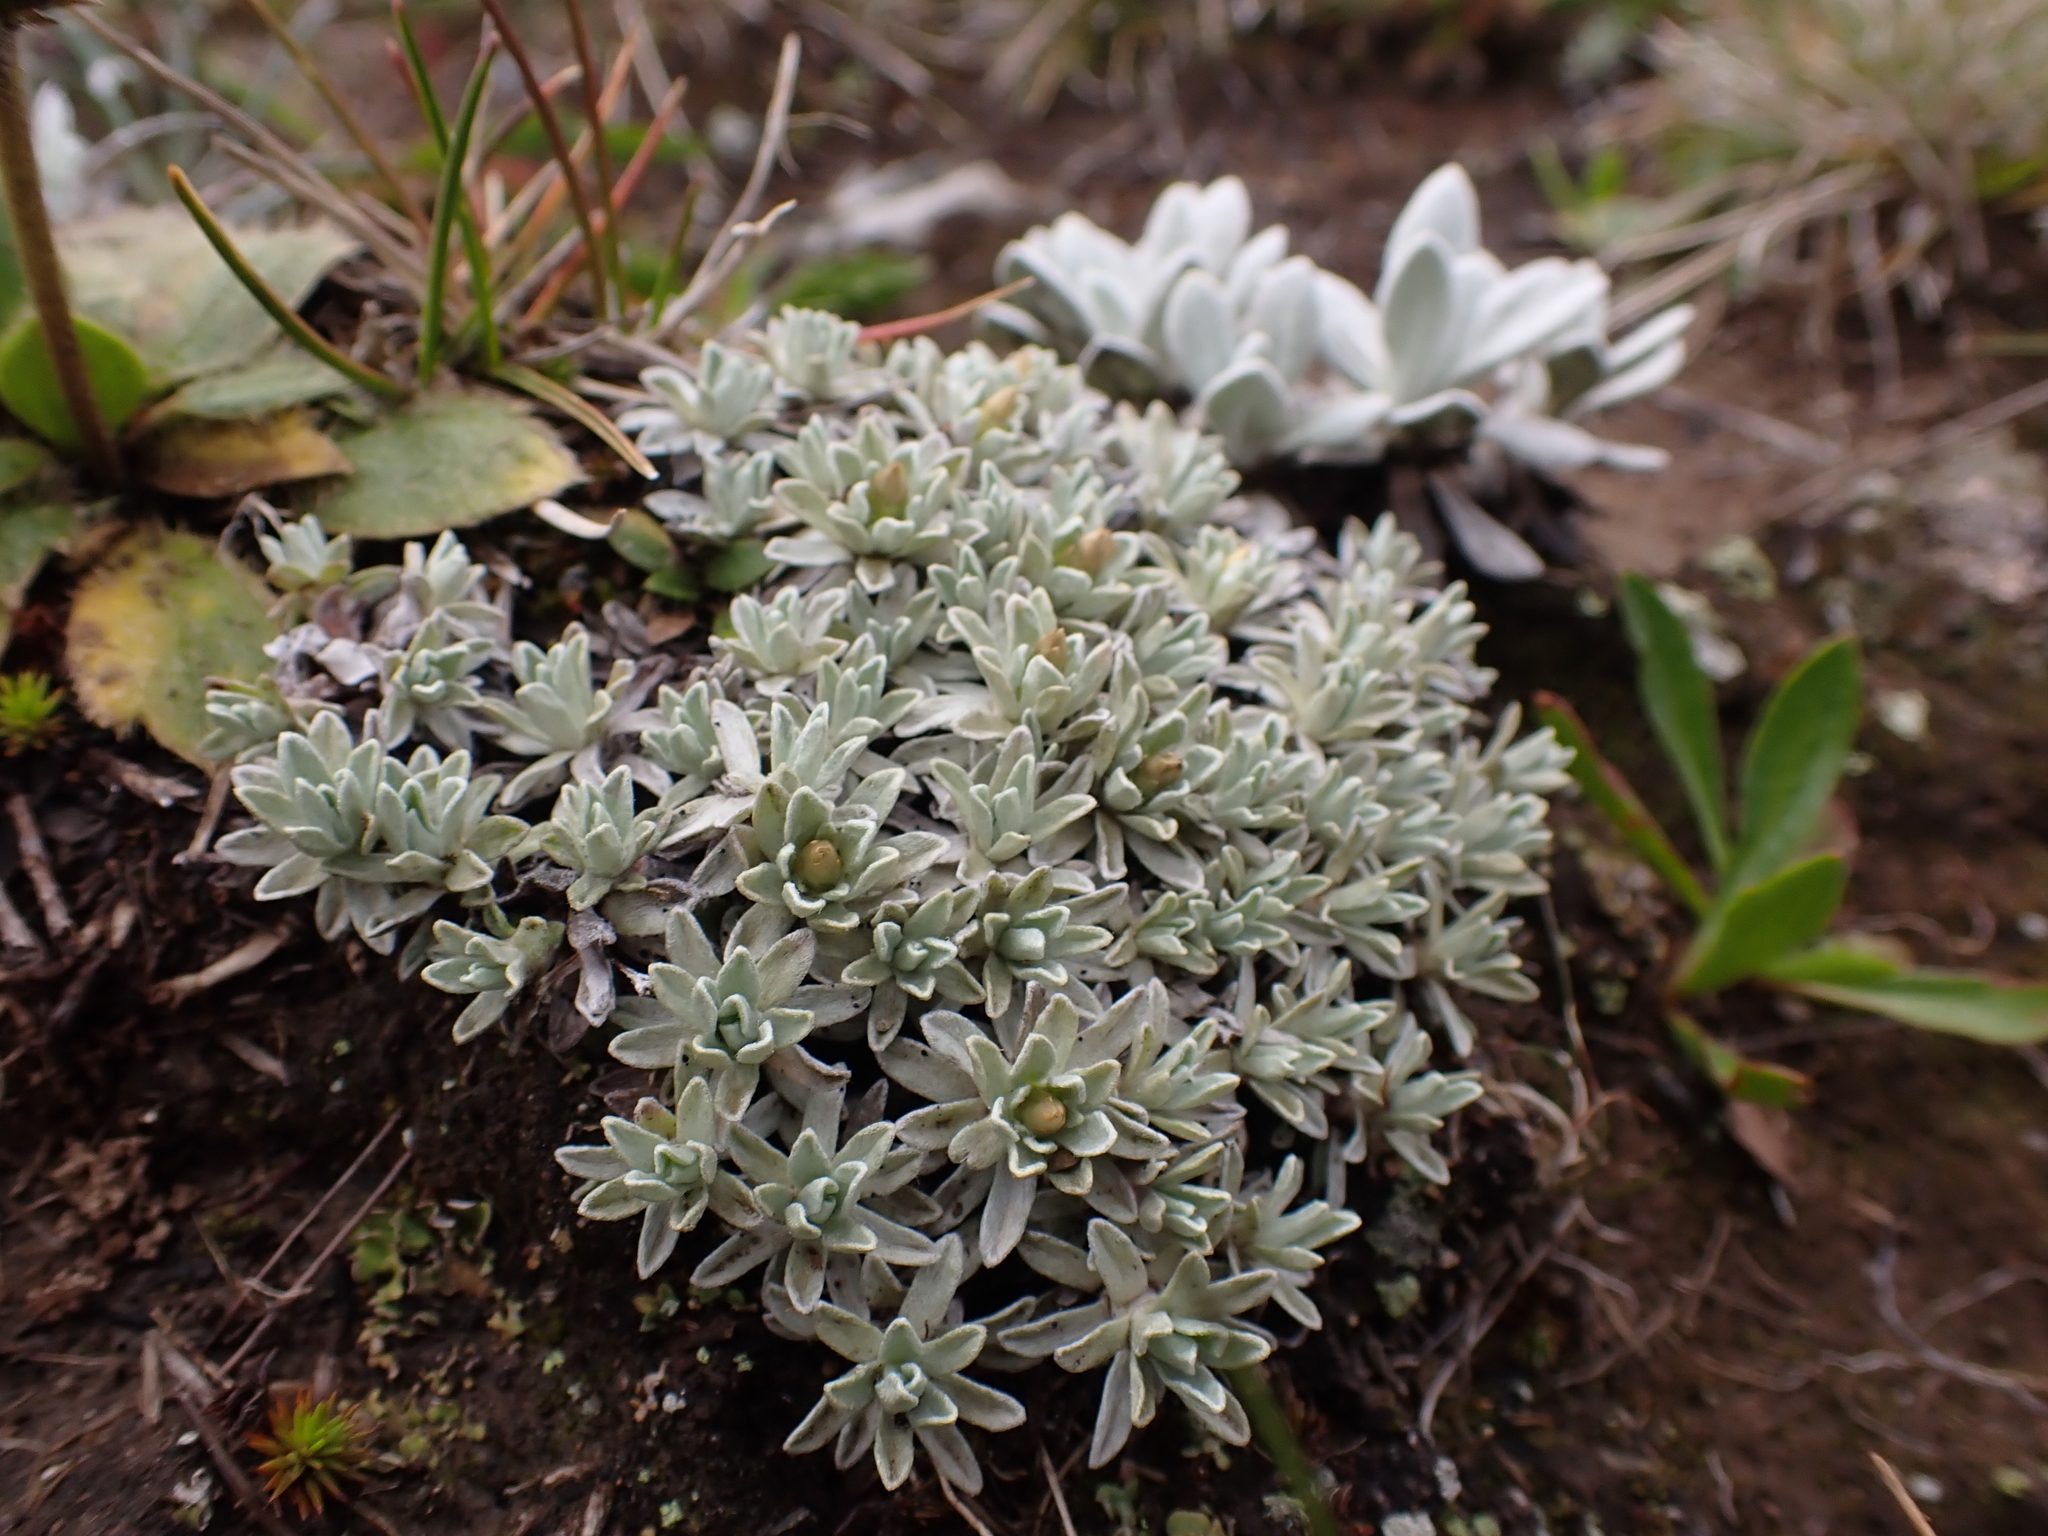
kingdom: Plantae
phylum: Tracheophyta
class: Magnoliopsida
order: Asterales
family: Asteraceae
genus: Argyrotegium
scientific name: Argyrotegium nitidulum
